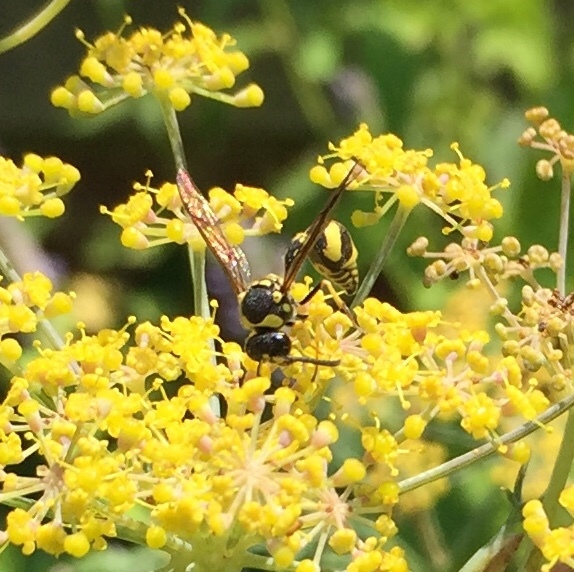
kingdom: Animalia
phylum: Arthropoda
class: Insecta
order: Hymenoptera
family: Vespidae
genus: Eumenes
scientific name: Eumenes mediterraneus
